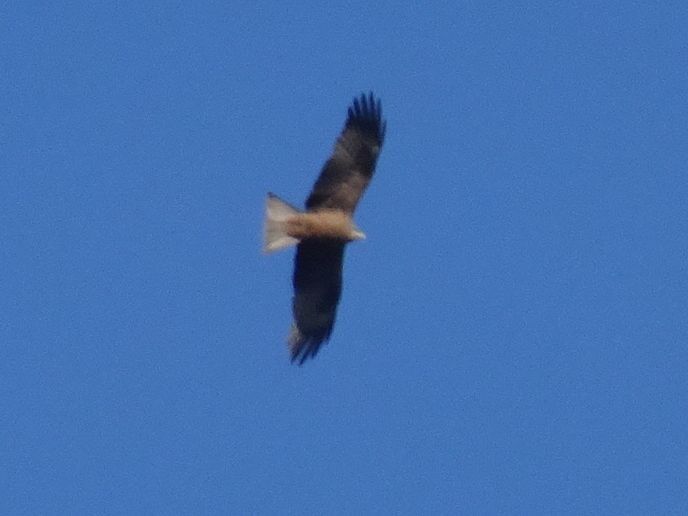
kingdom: Animalia
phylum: Chordata
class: Aves
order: Accipitriformes
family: Accipitridae
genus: Milvus
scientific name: Milvus migrans
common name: Black kite
